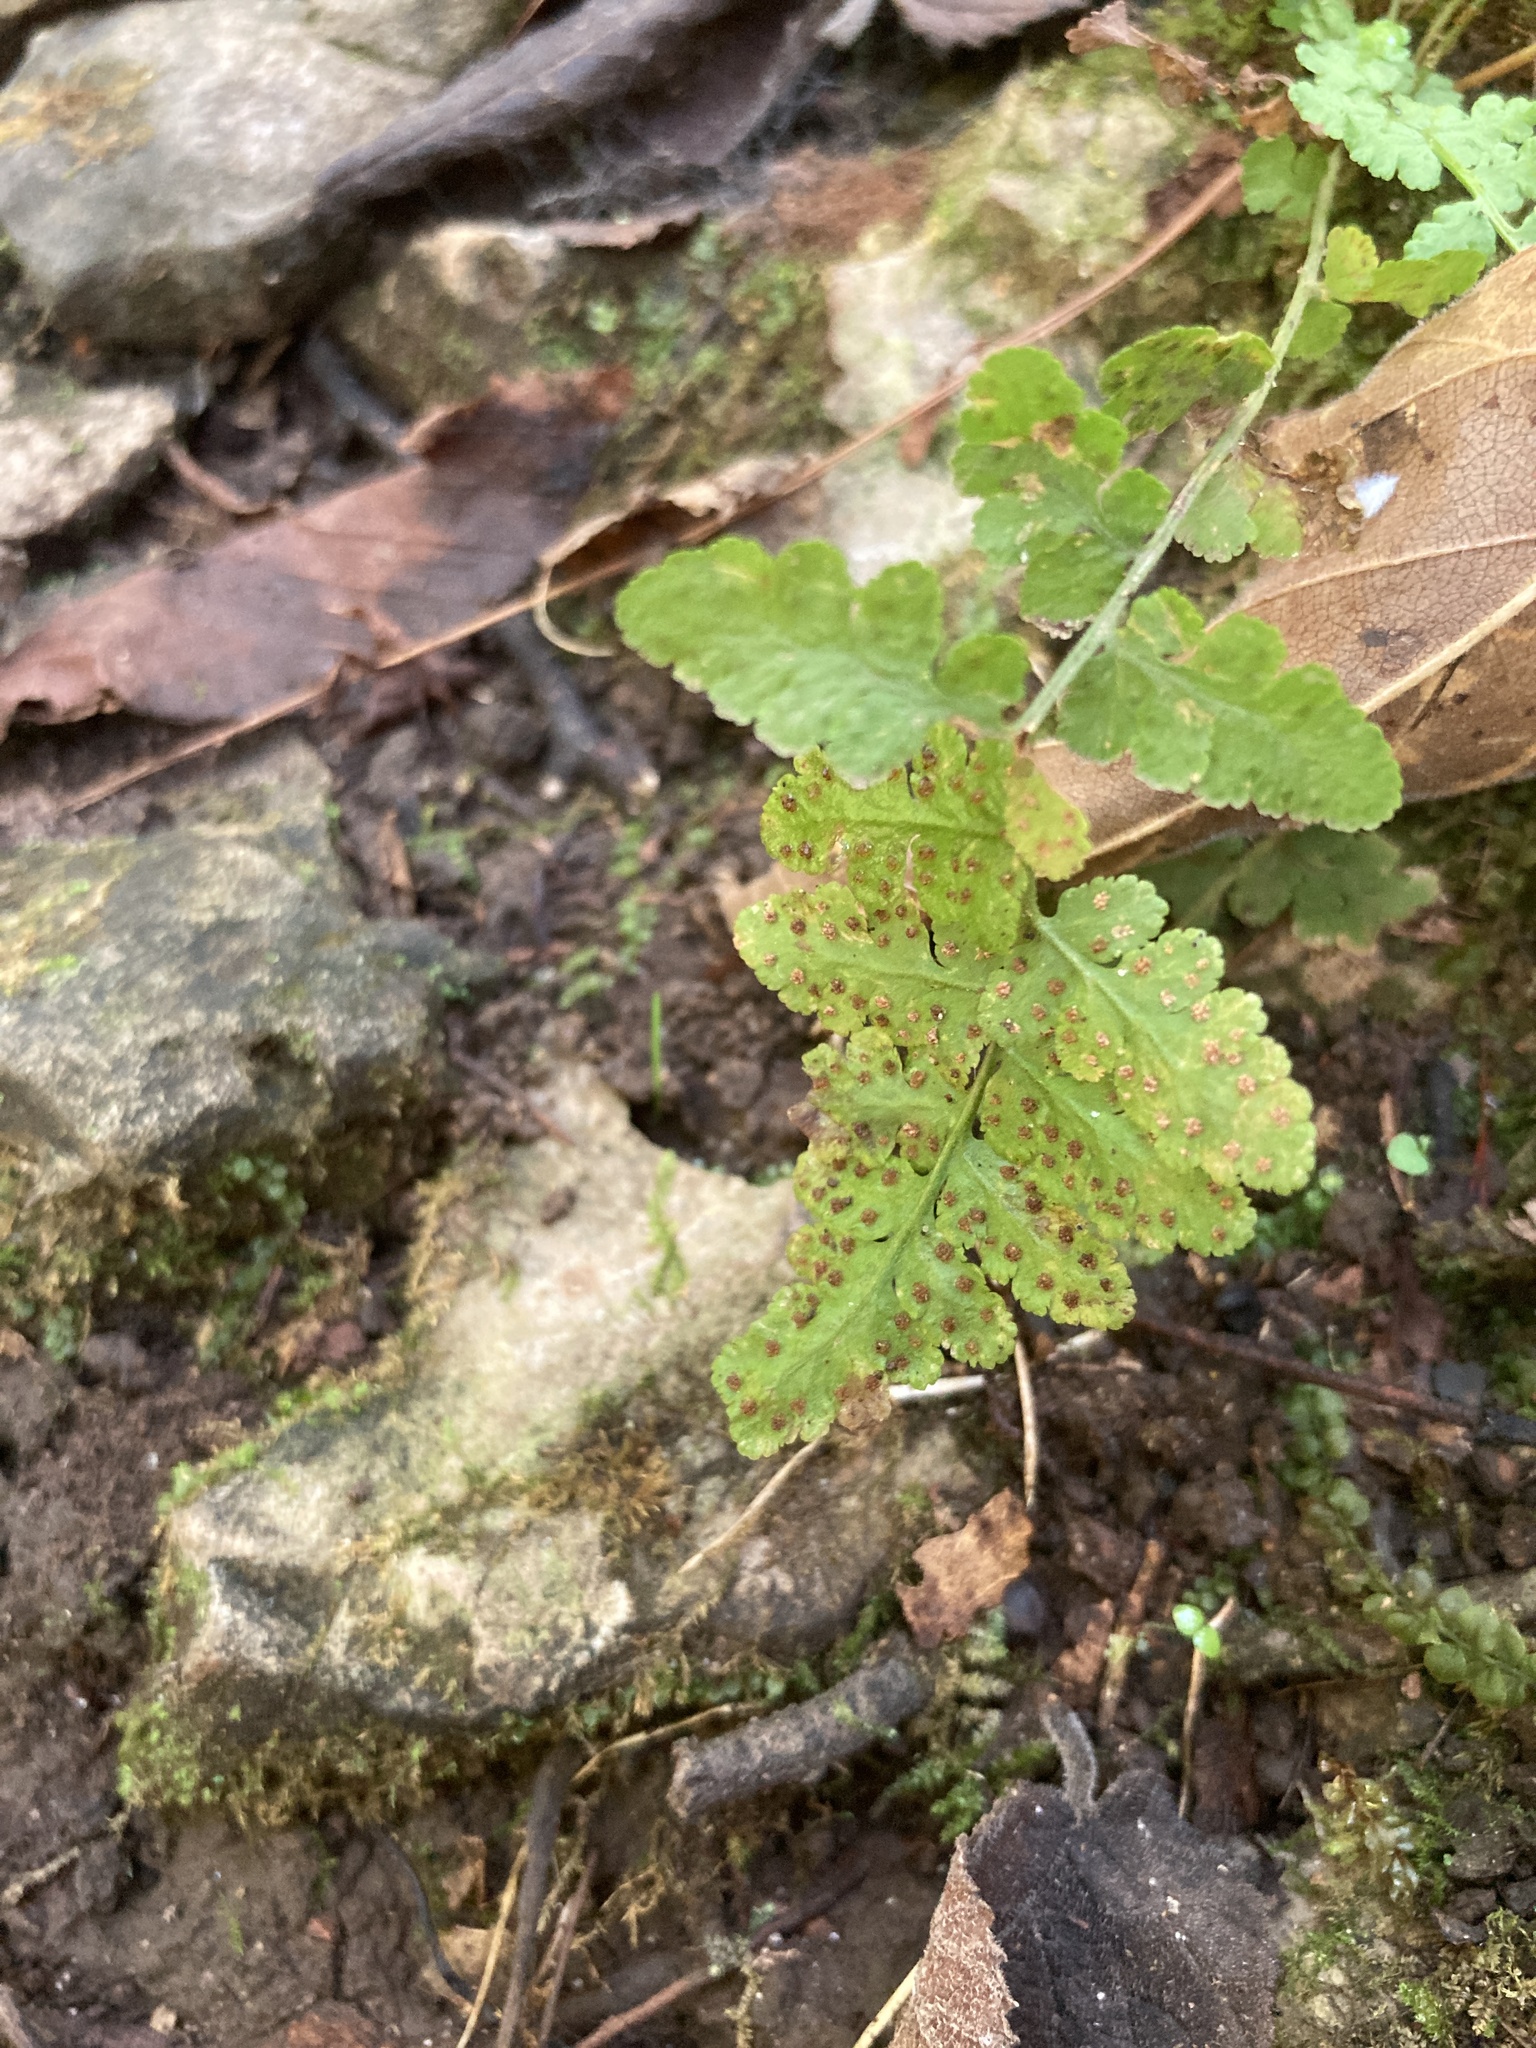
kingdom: Plantae
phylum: Tracheophyta
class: Polypodiopsida
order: Polypodiales
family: Woodsiaceae
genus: Physematium
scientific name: Physematium obtusum
